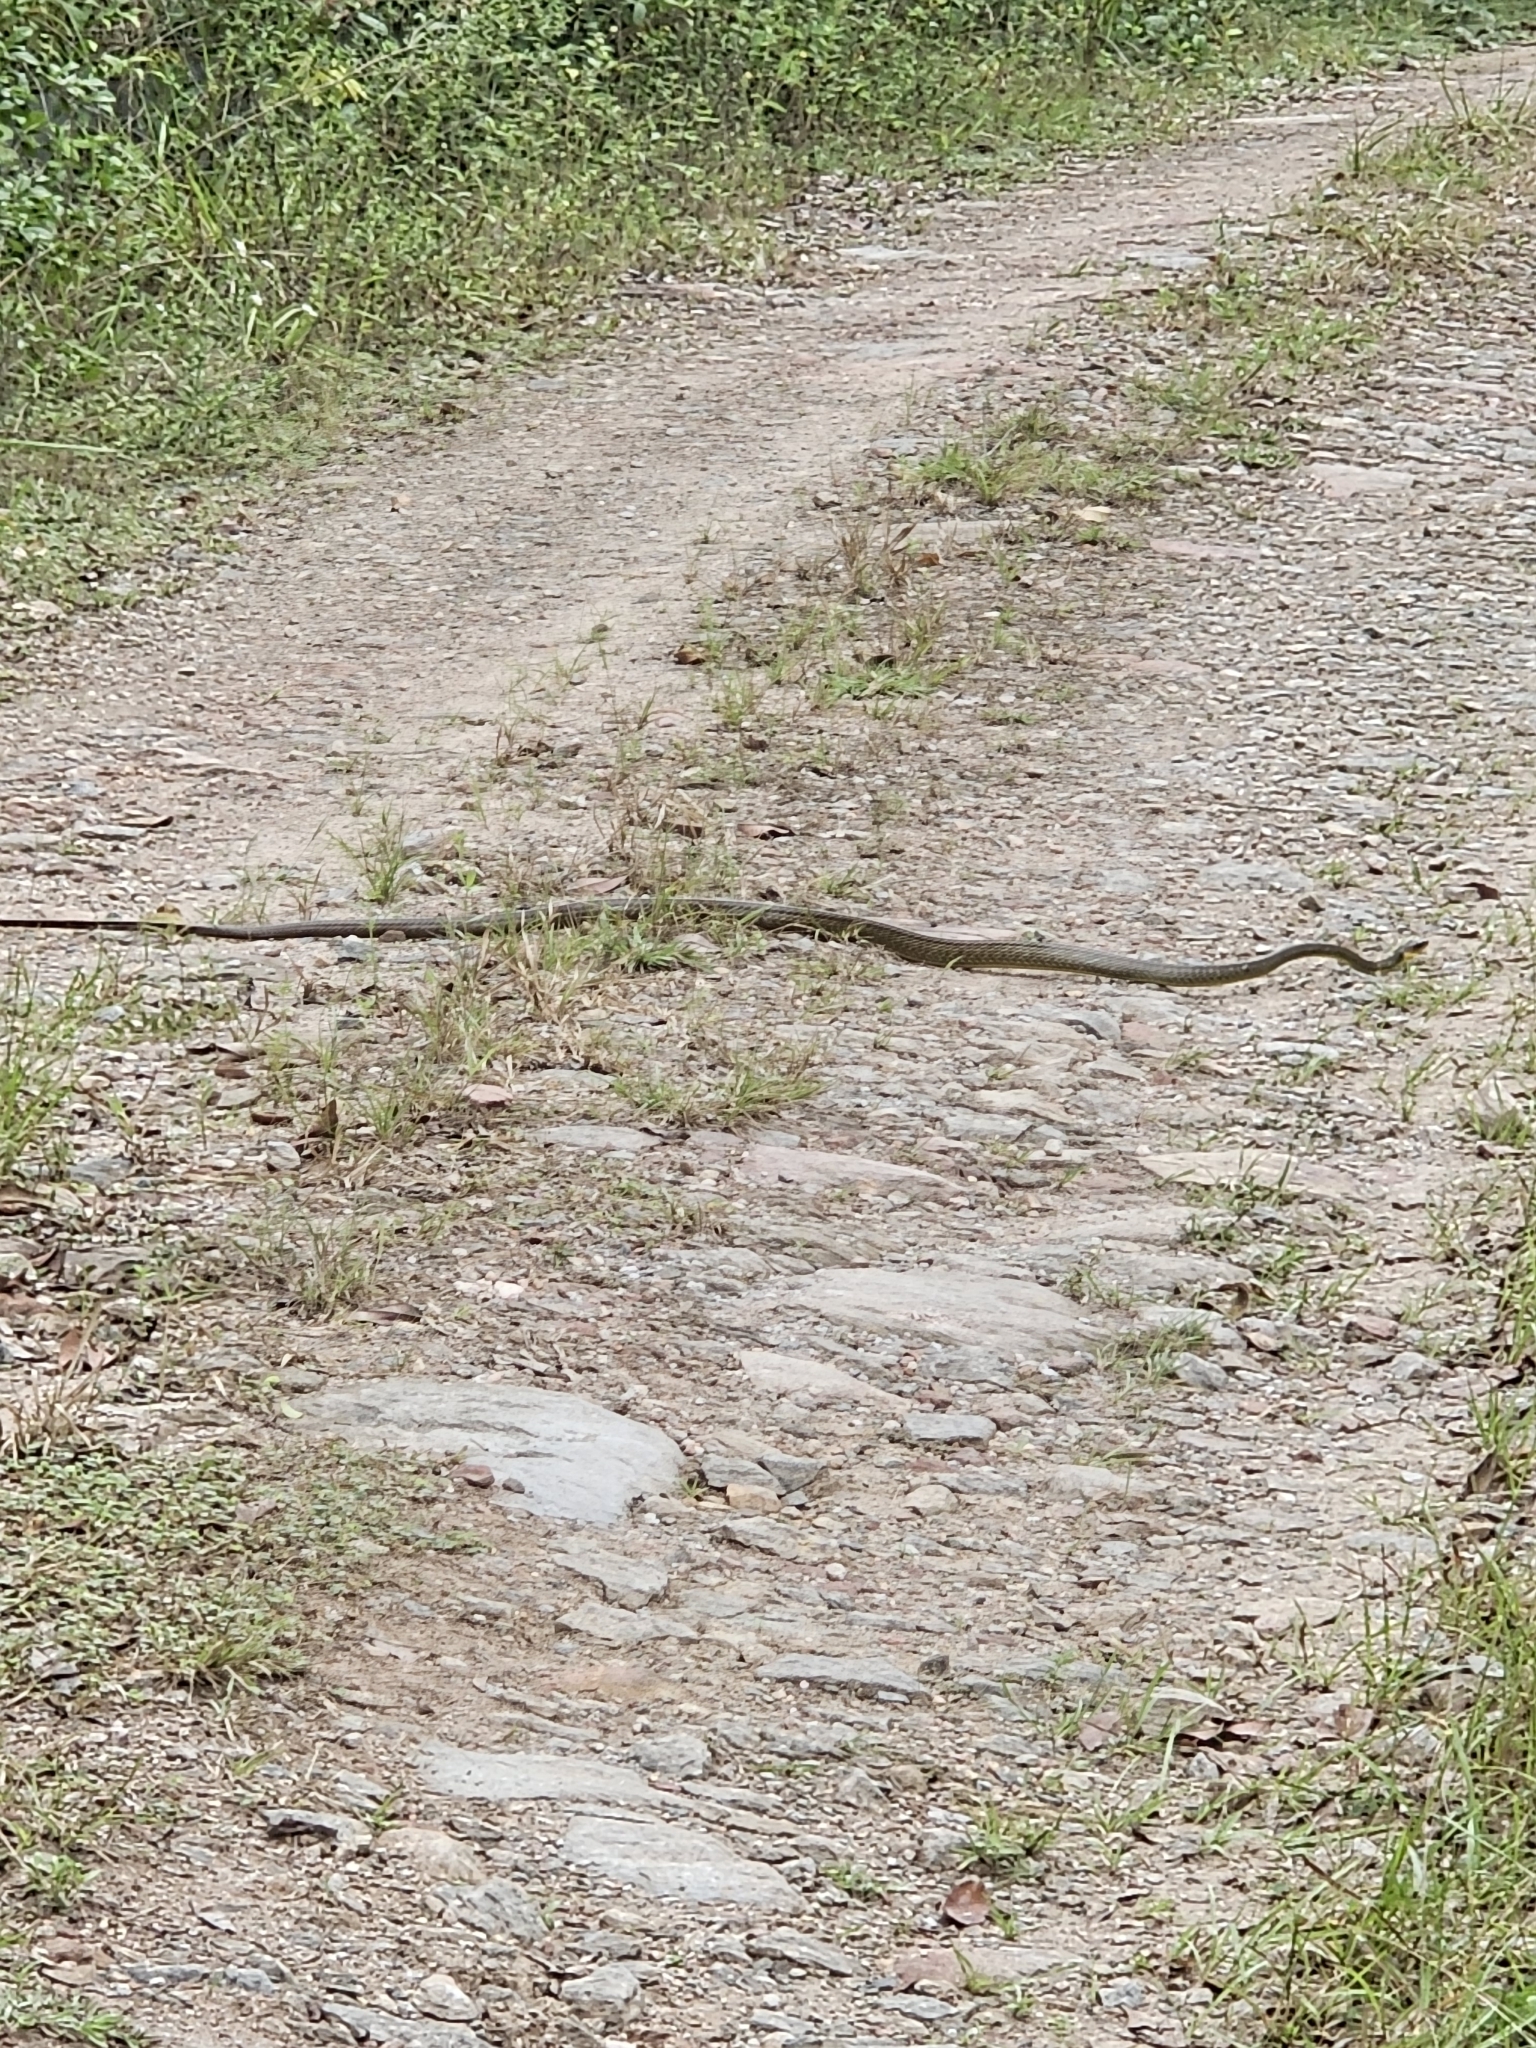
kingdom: Animalia
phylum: Chordata
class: Squamata
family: Colubridae
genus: Chironius
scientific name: Chironius multiventris
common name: South american sipo
